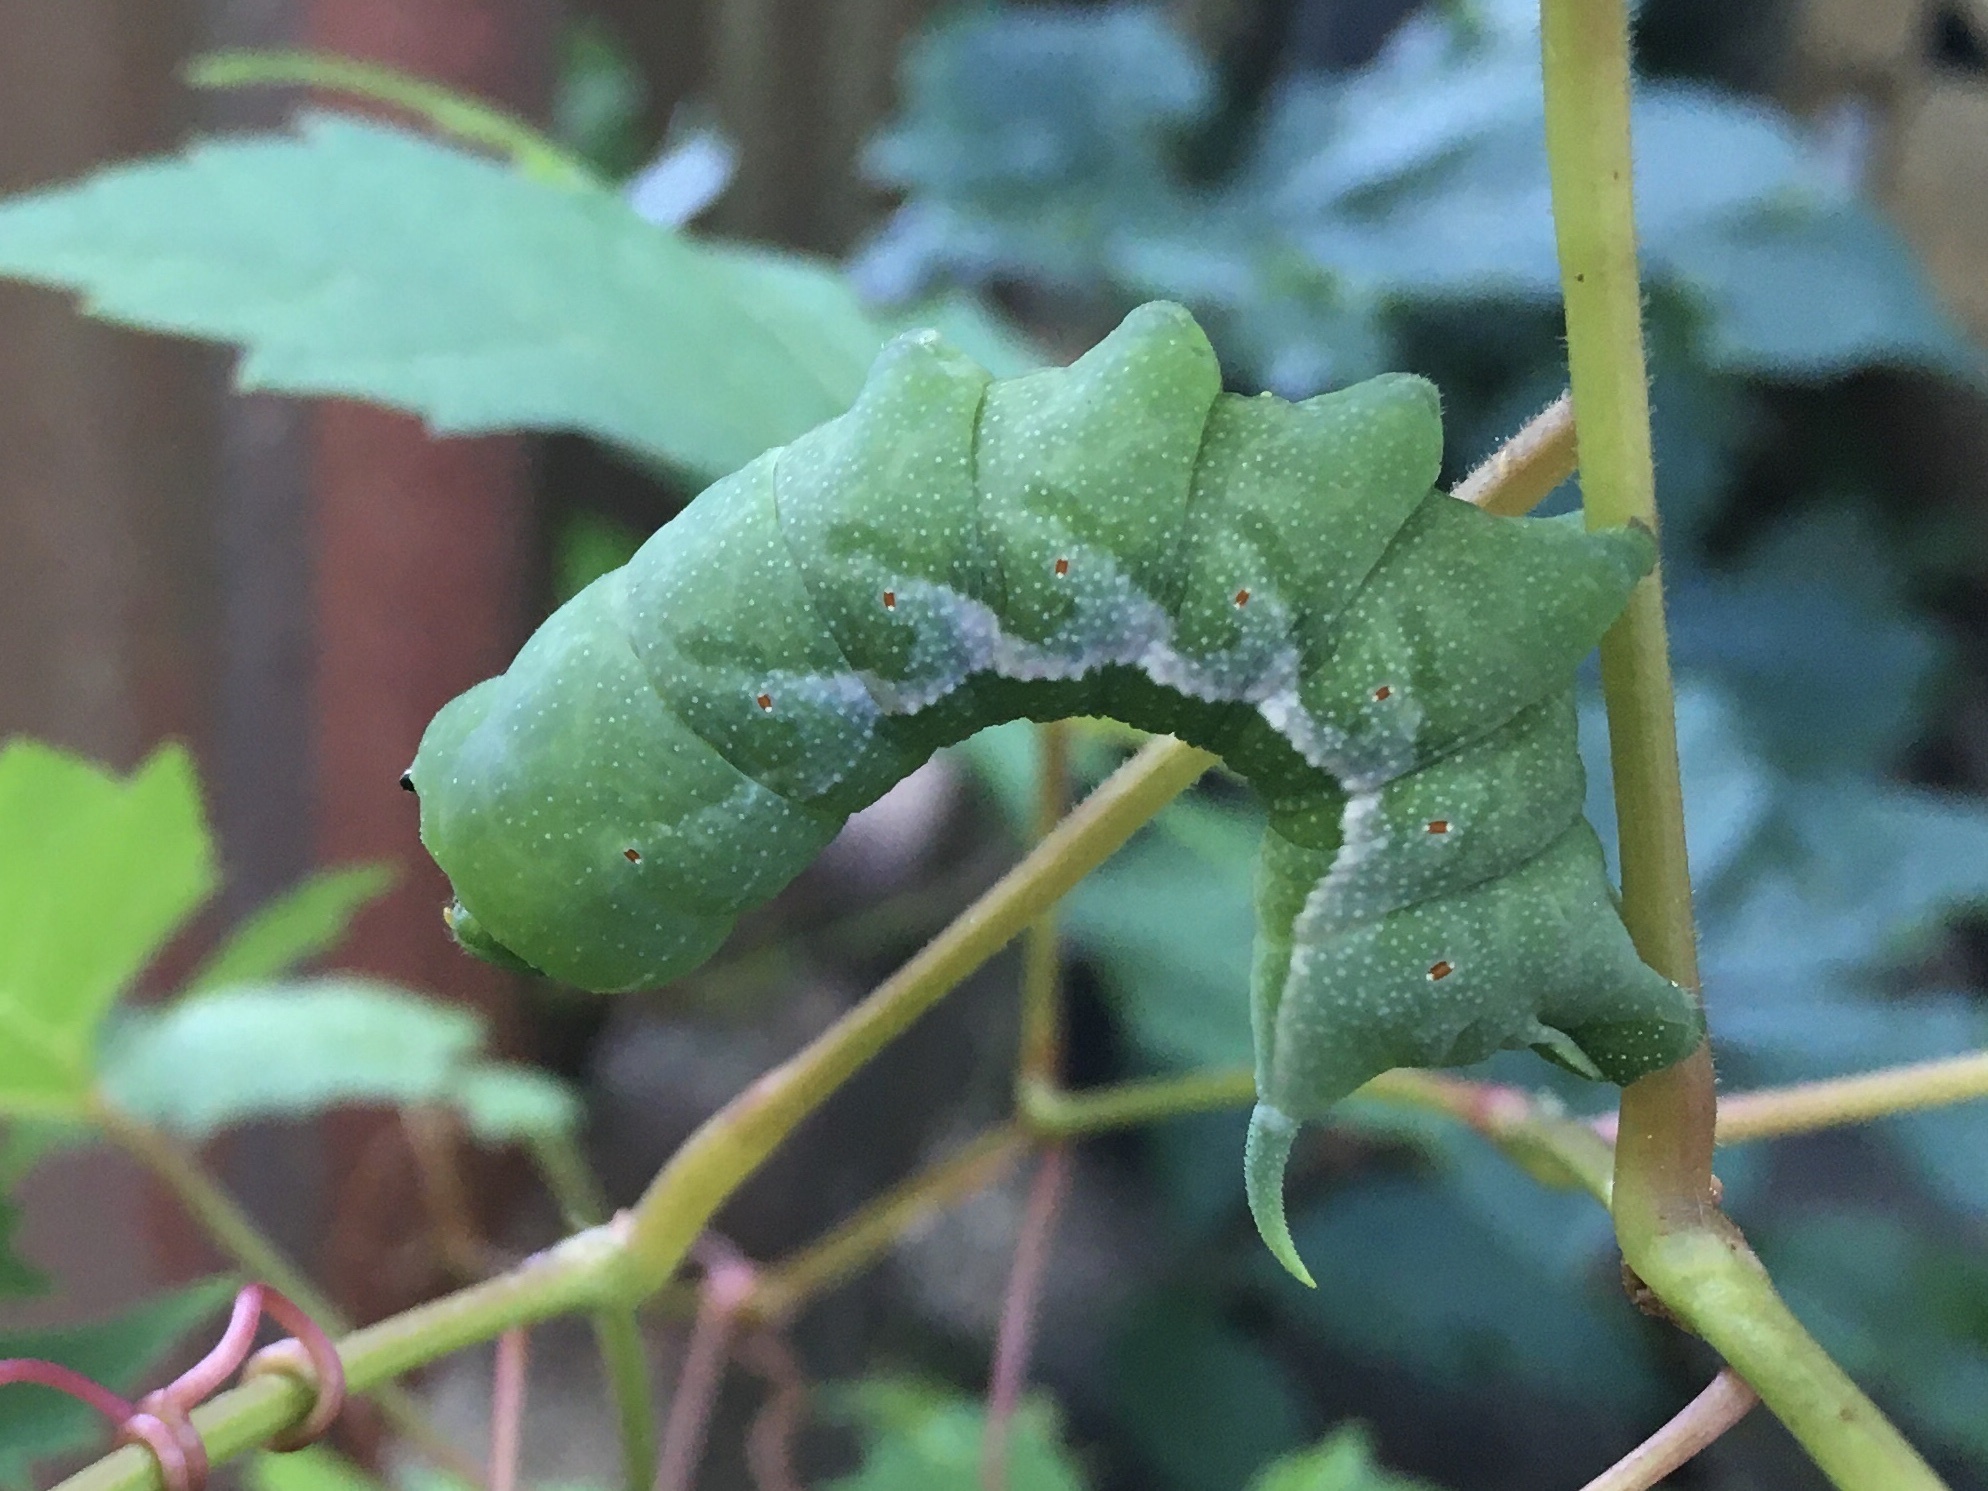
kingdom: Animalia
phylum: Arthropoda
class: Insecta
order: Lepidoptera
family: Sphingidae
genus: Darapsa
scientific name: Darapsa myron
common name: Hog sphinx
